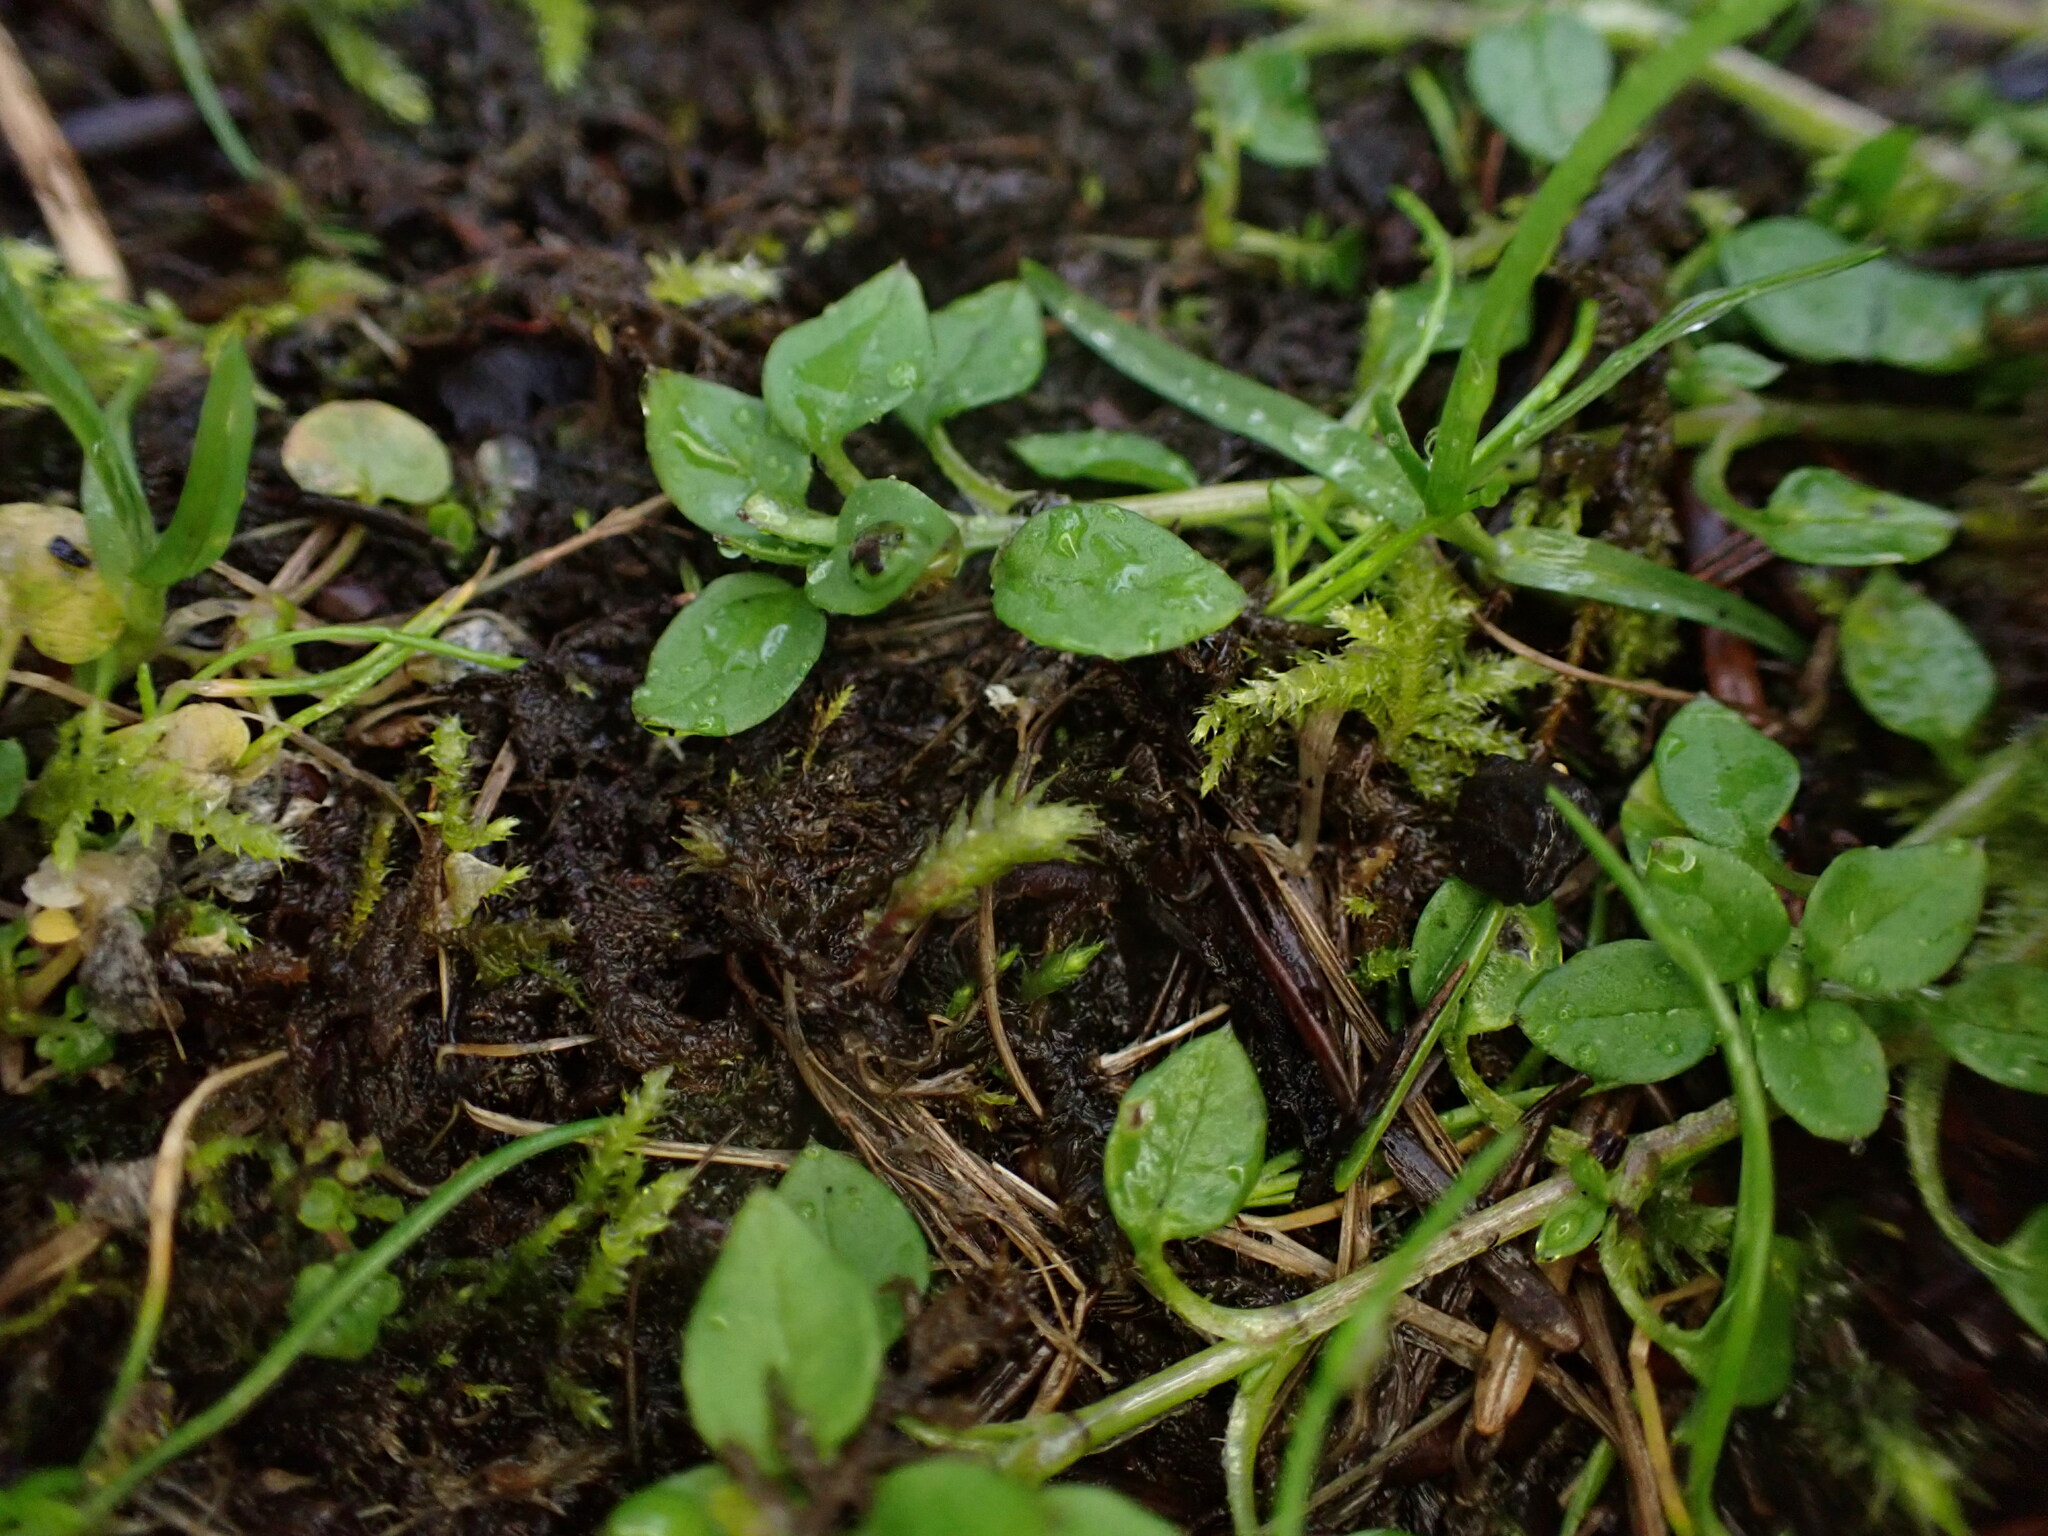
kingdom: Plantae
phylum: Tracheophyta
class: Magnoliopsida
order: Caryophyllales
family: Caryophyllaceae
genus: Stellaria
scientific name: Stellaria media
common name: Common chickweed
